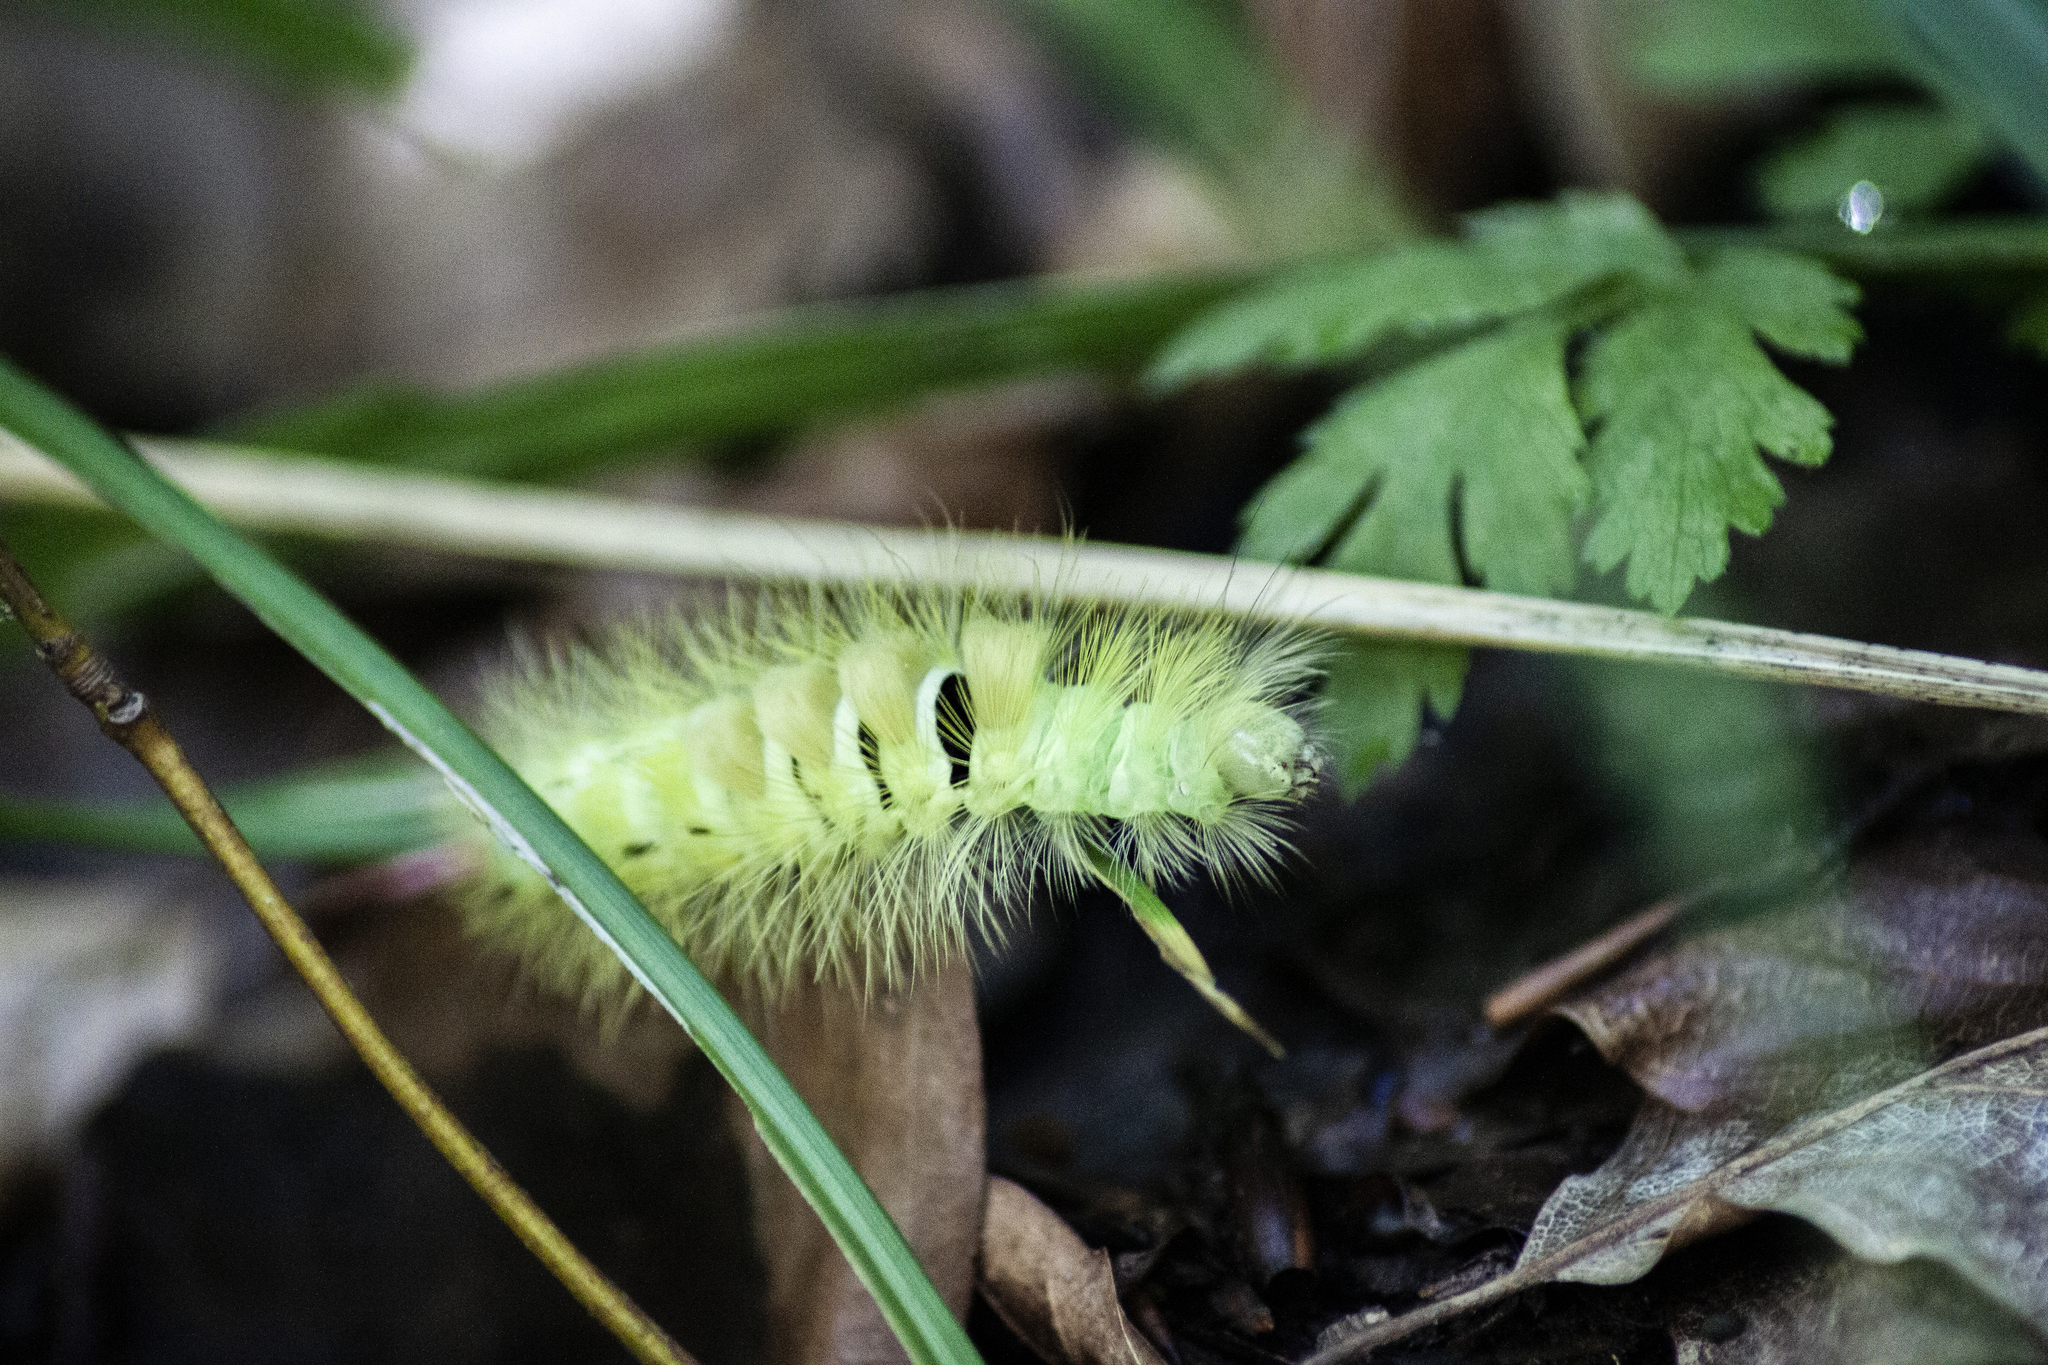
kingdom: Animalia
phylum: Arthropoda
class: Insecta
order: Lepidoptera
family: Erebidae
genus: Calliteara
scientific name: Calliteara pudibunda
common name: Pale tussock
